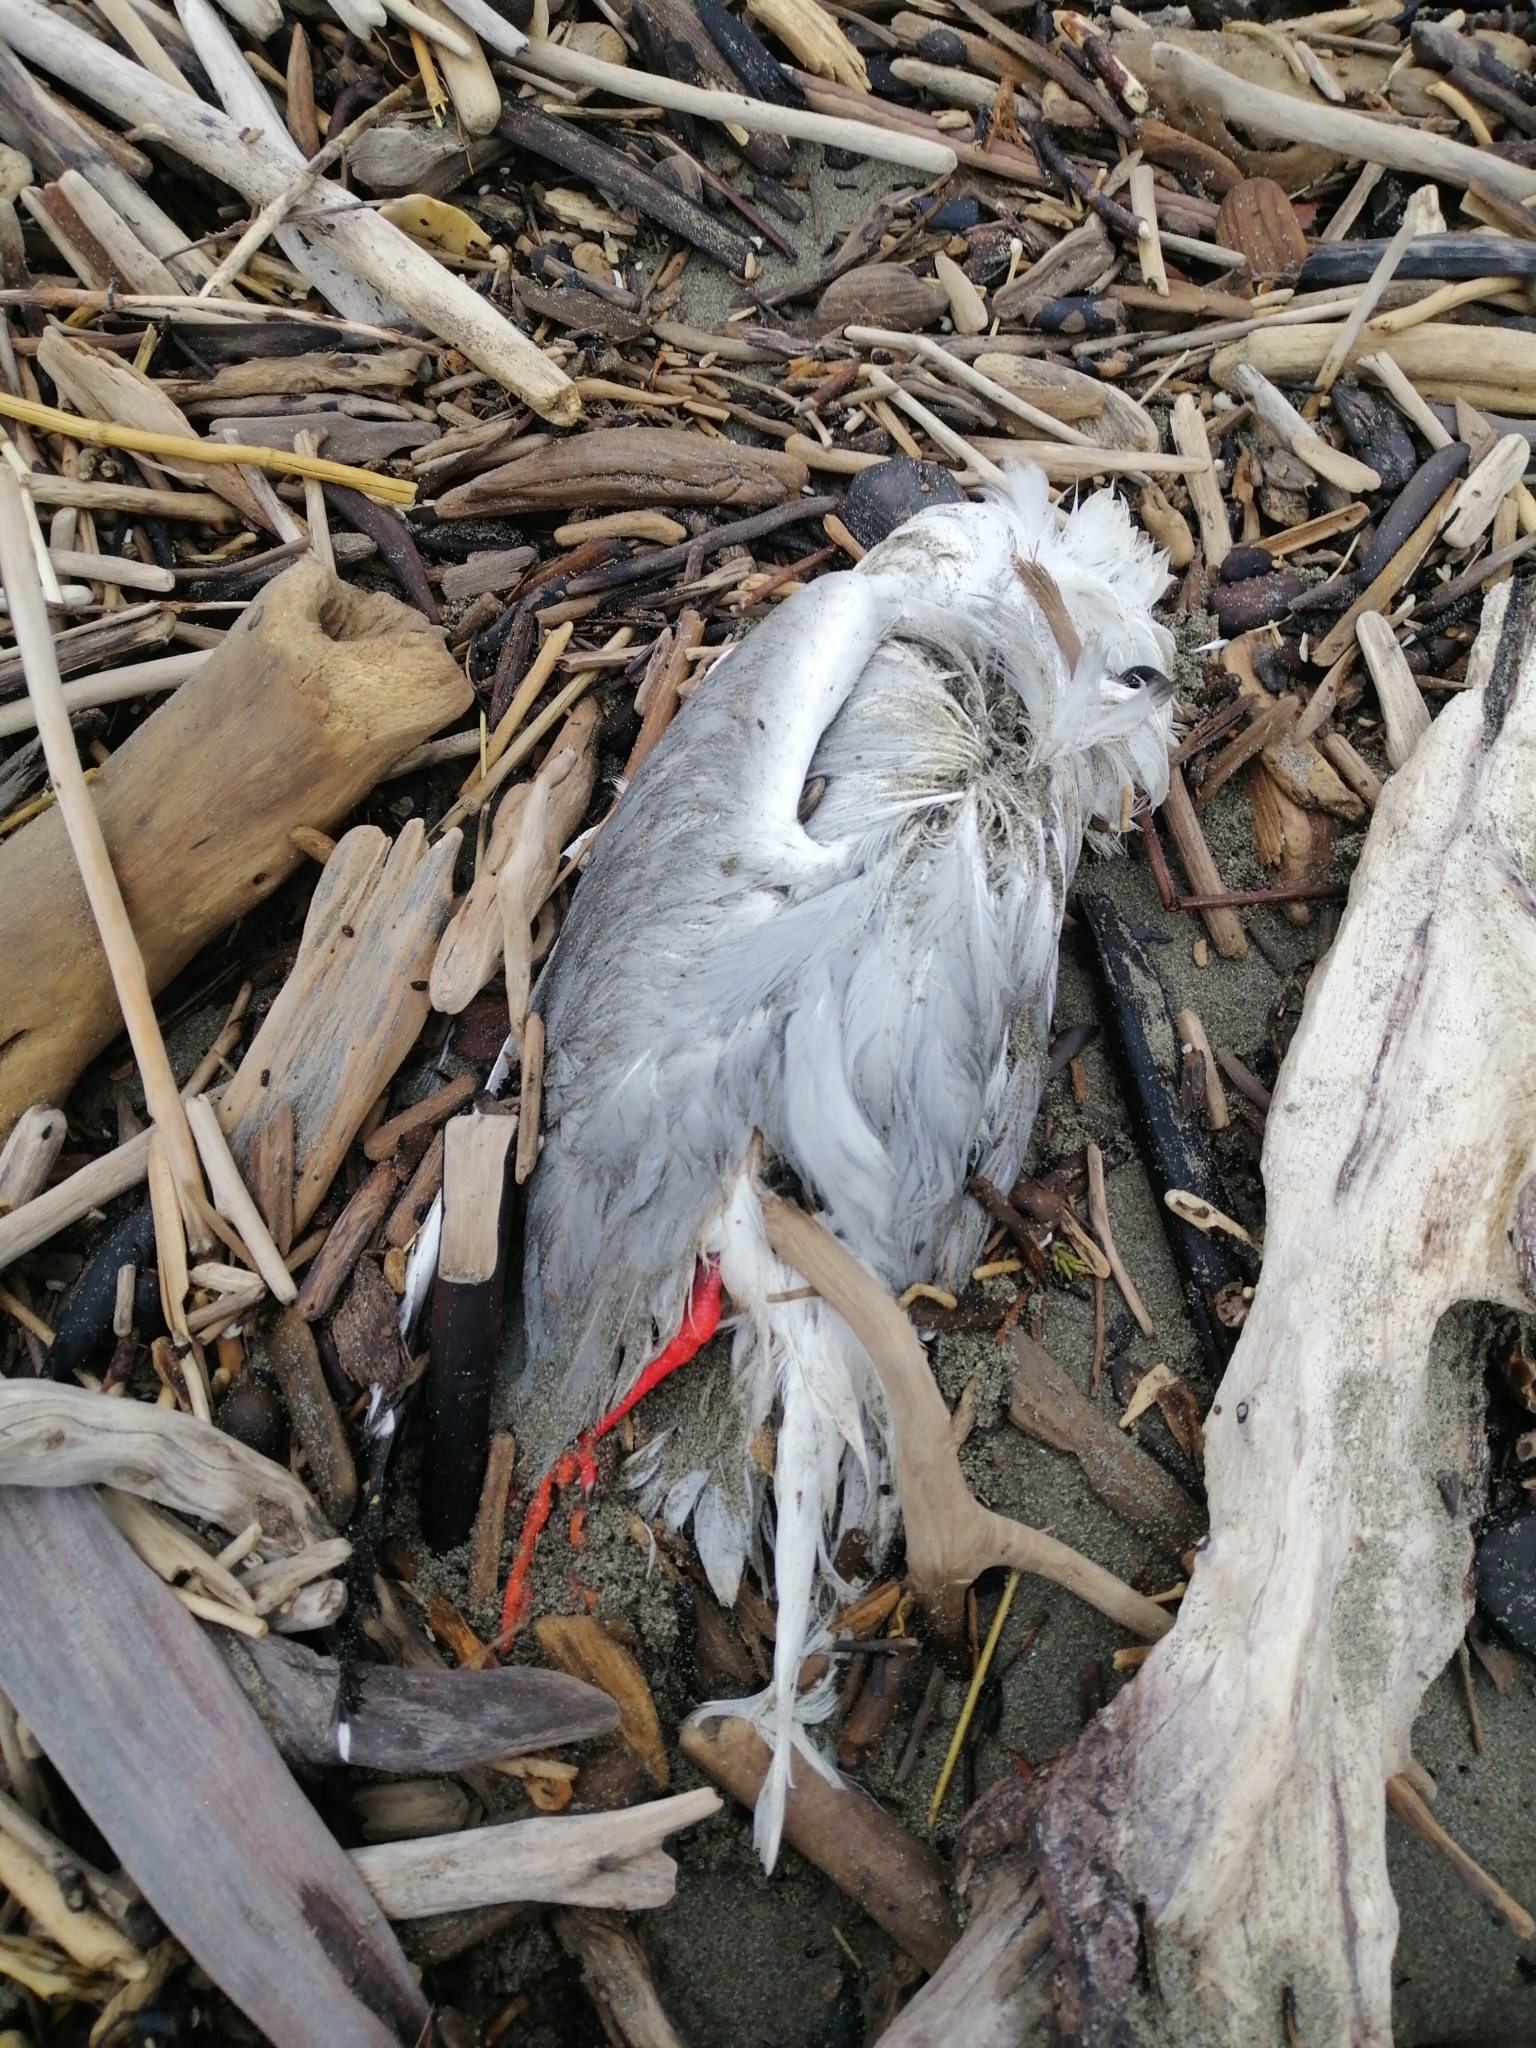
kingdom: Animalia
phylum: Chordata
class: Aves
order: Charadriiformes
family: Laridae
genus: Chroicocephalus
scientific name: Chroicocephalus novaehollandiae
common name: Silver gull
